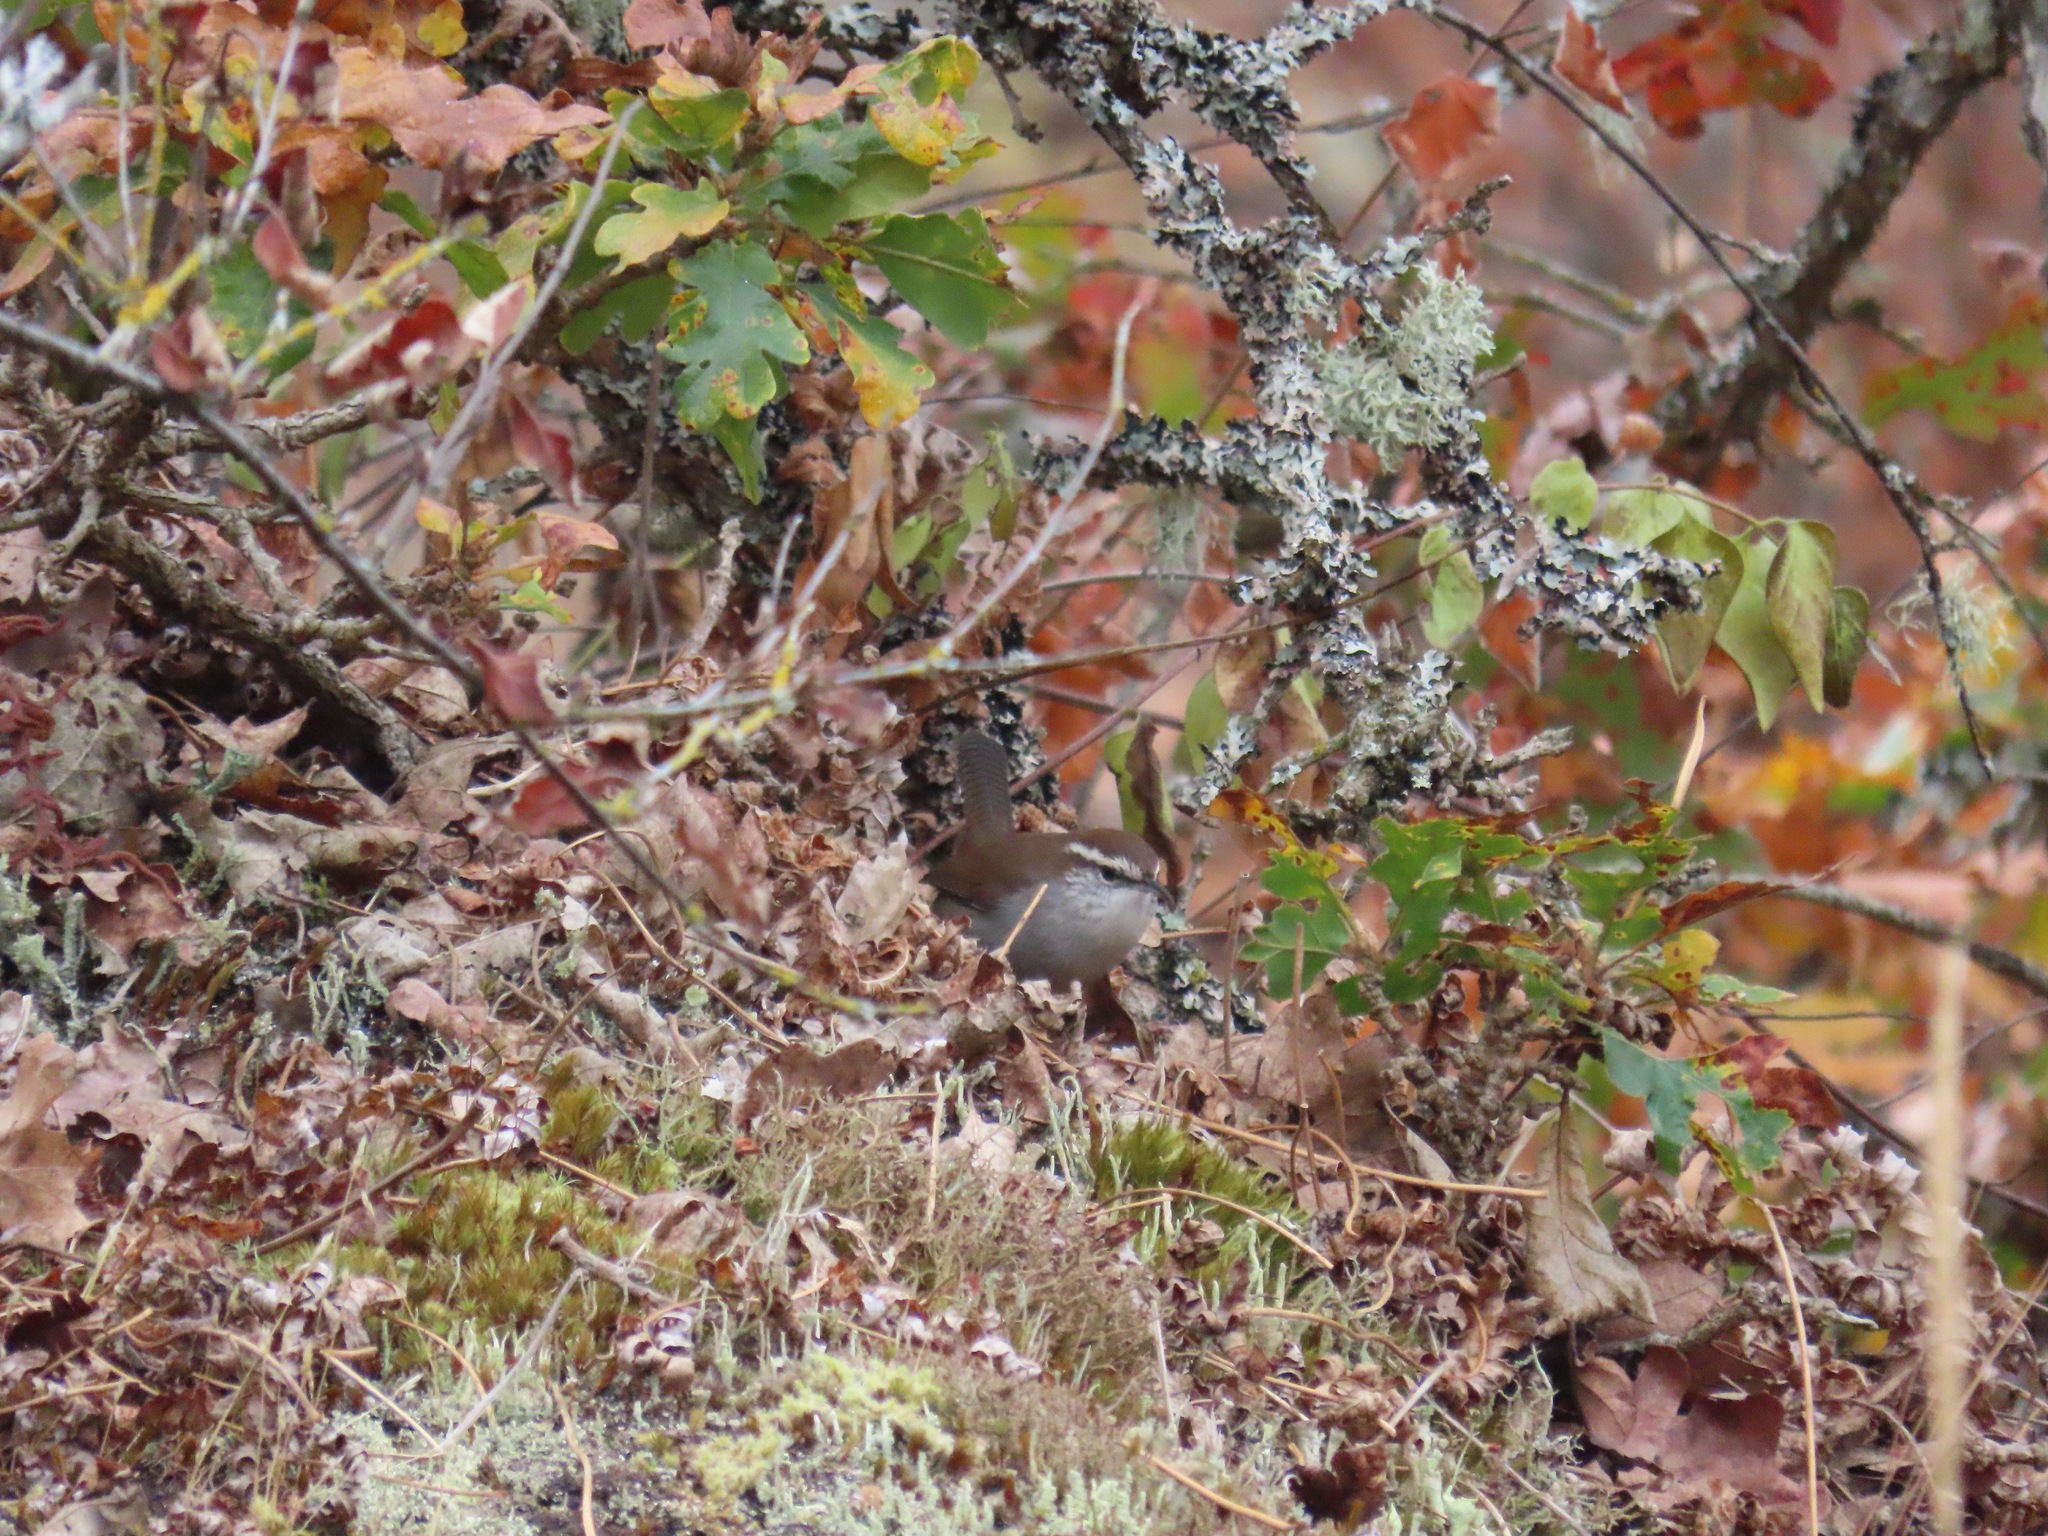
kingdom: Animalia
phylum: Chordata
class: Aves
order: Passeriformes
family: Troglodytidae
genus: Thryomanes
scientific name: Thryomanes bewickii
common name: Bewick's wren
